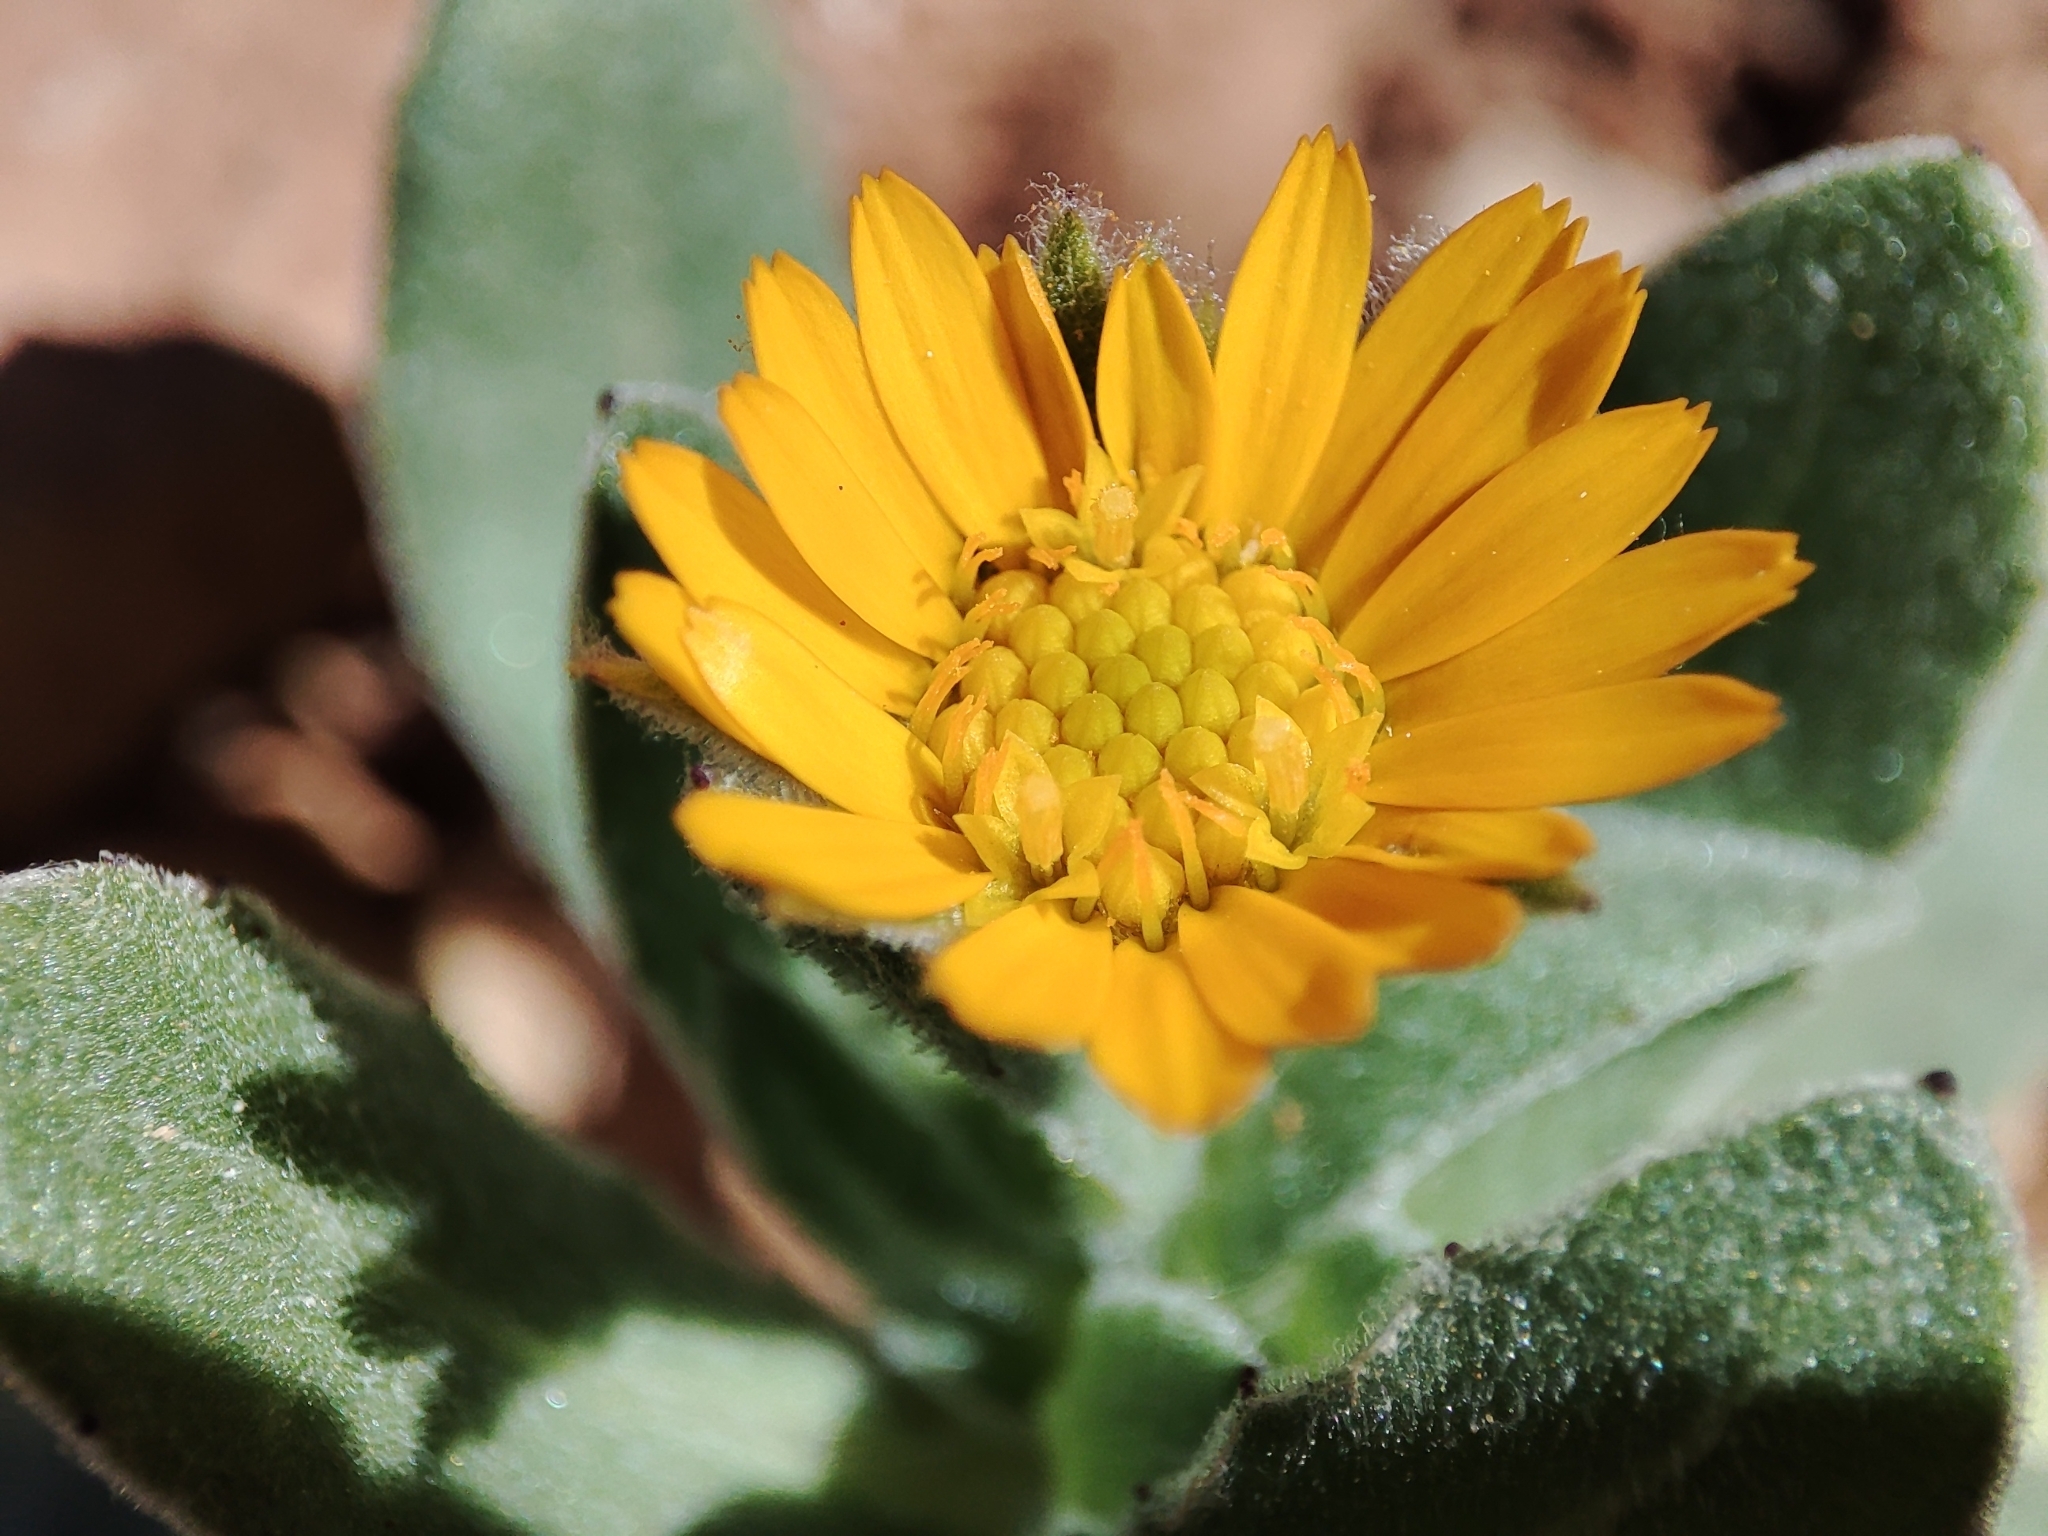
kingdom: Plantae
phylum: Tracheophyta
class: Magnoliopsida
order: Asterales
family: Asteraceae
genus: Calendula
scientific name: Calendula arvensis
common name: Field marigold
